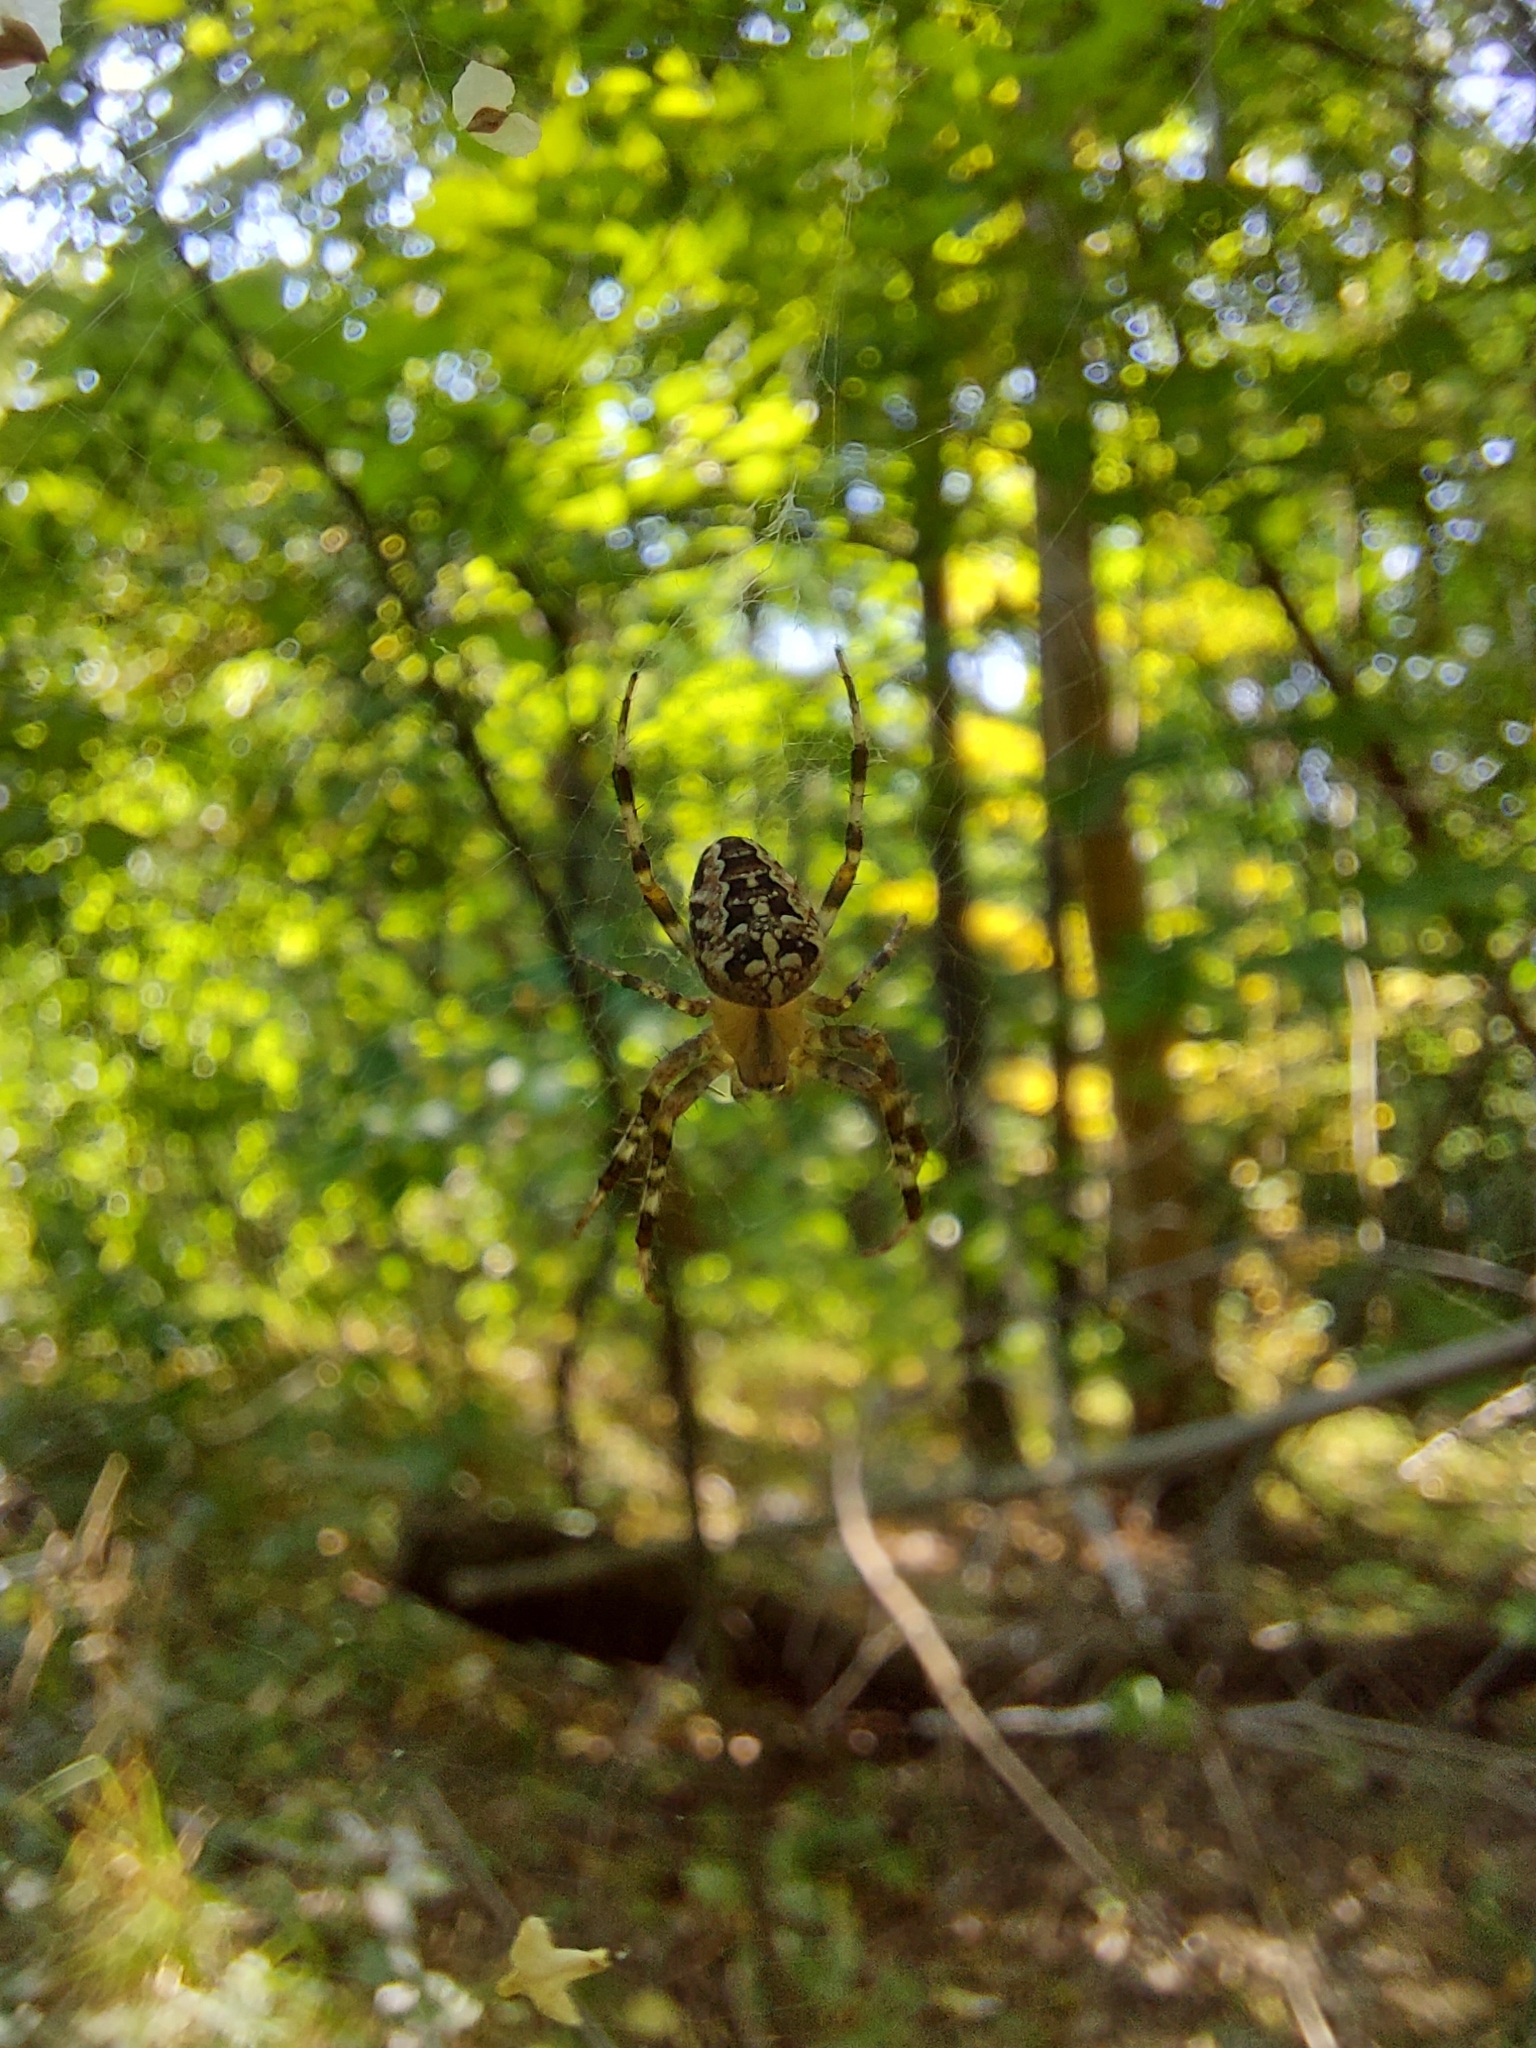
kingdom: Animalia
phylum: Arthropoda
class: Arachnida
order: Araneae
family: Araneidae
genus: Araneus
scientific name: Araneus diadematus
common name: Cross orbweaver
